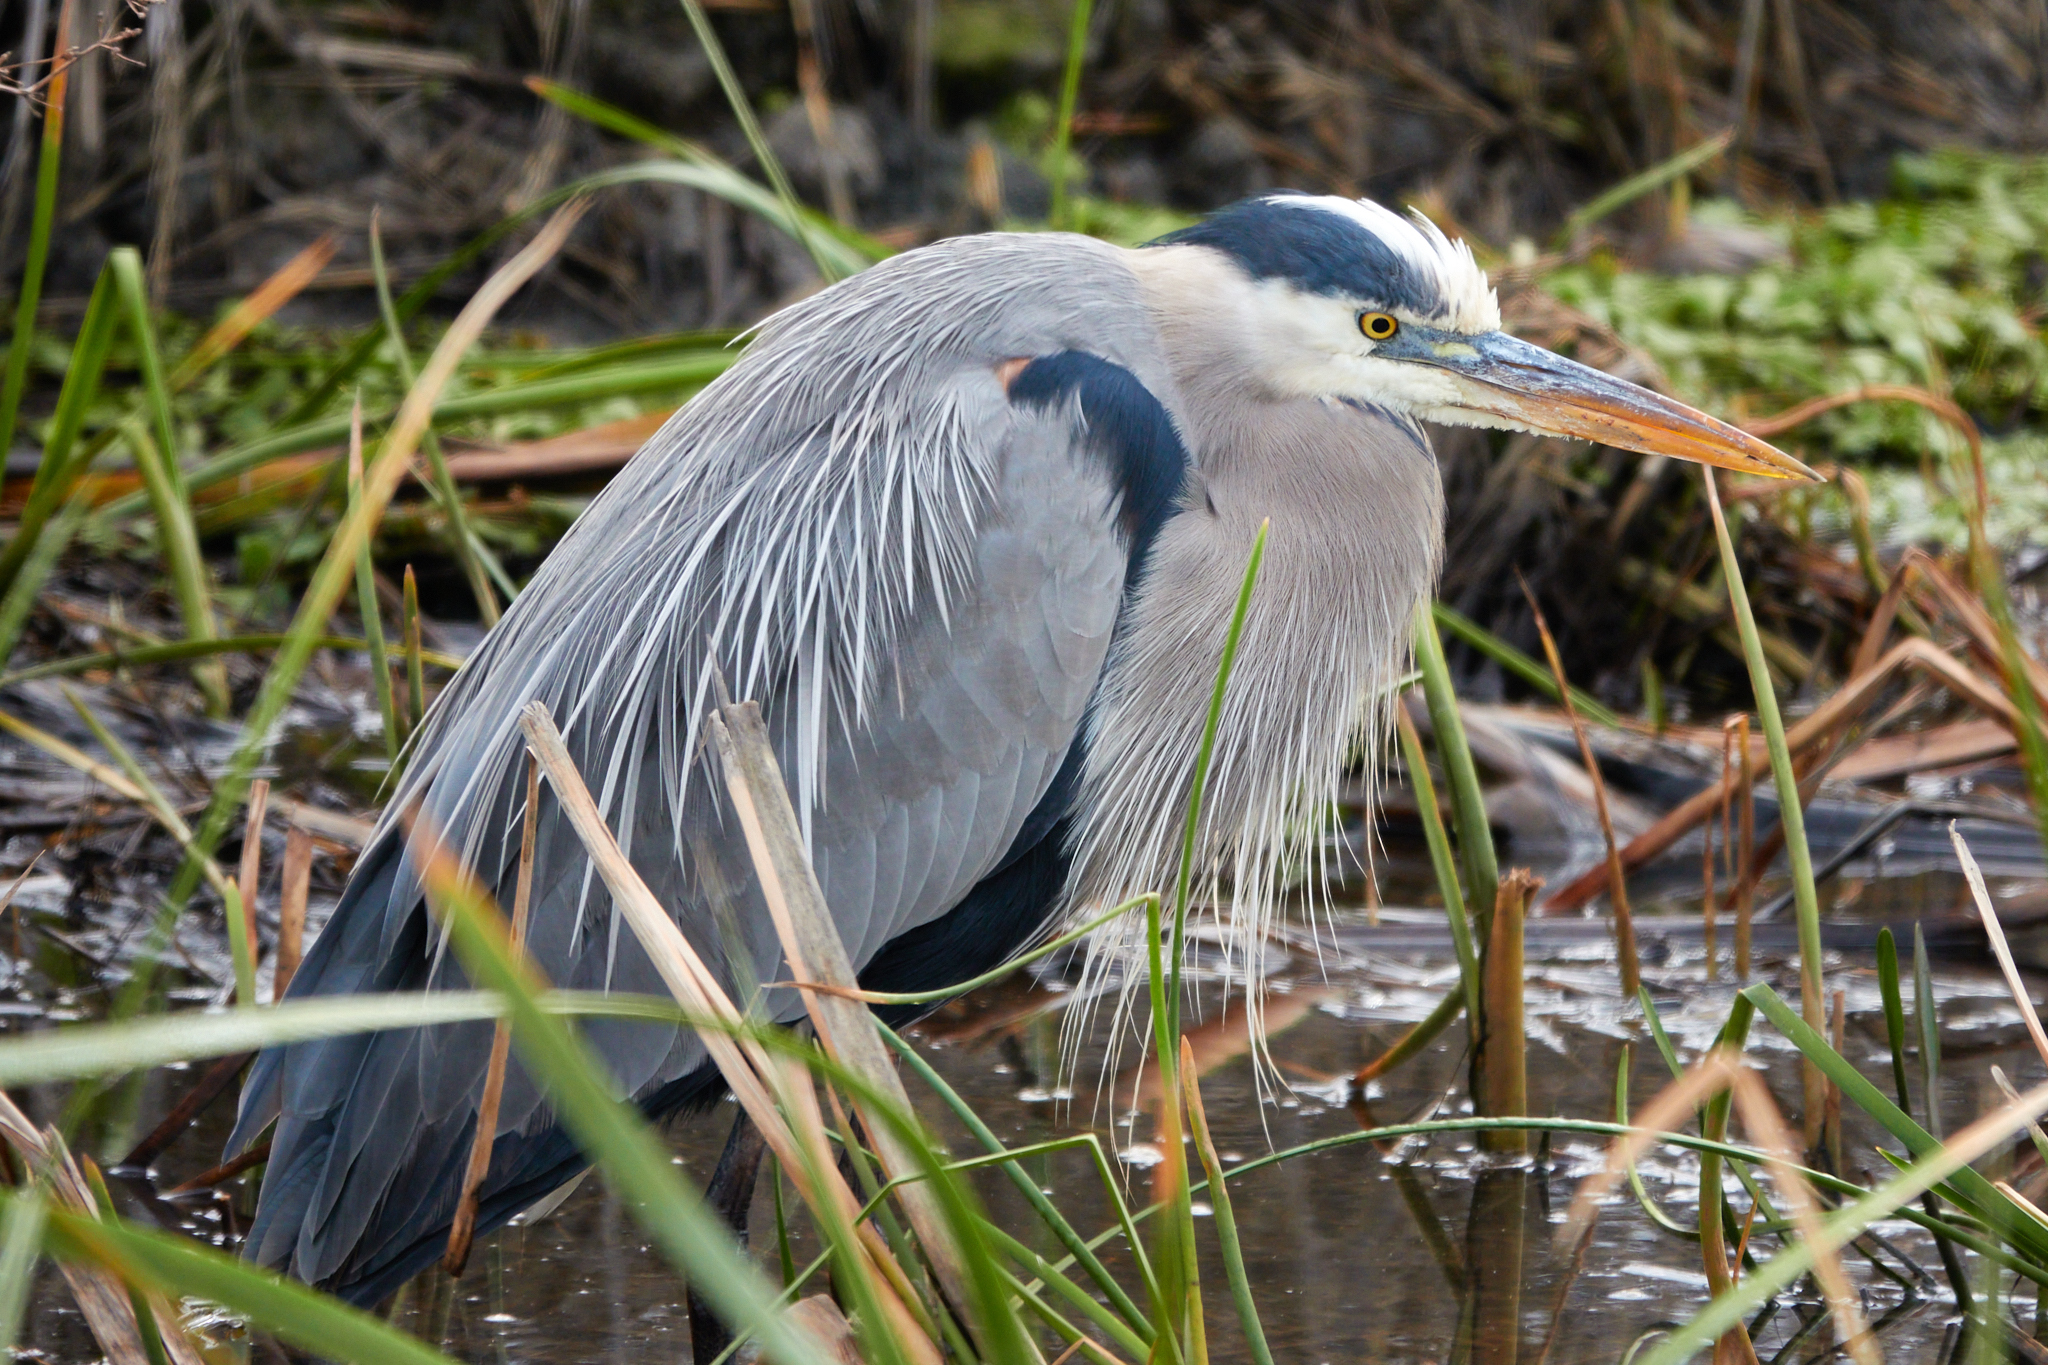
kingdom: Animalia
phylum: Chordata
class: Aves
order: Pelecaniformes
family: Ardeidae
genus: Ardea
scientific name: Ardea herodias
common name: Great blue heron
